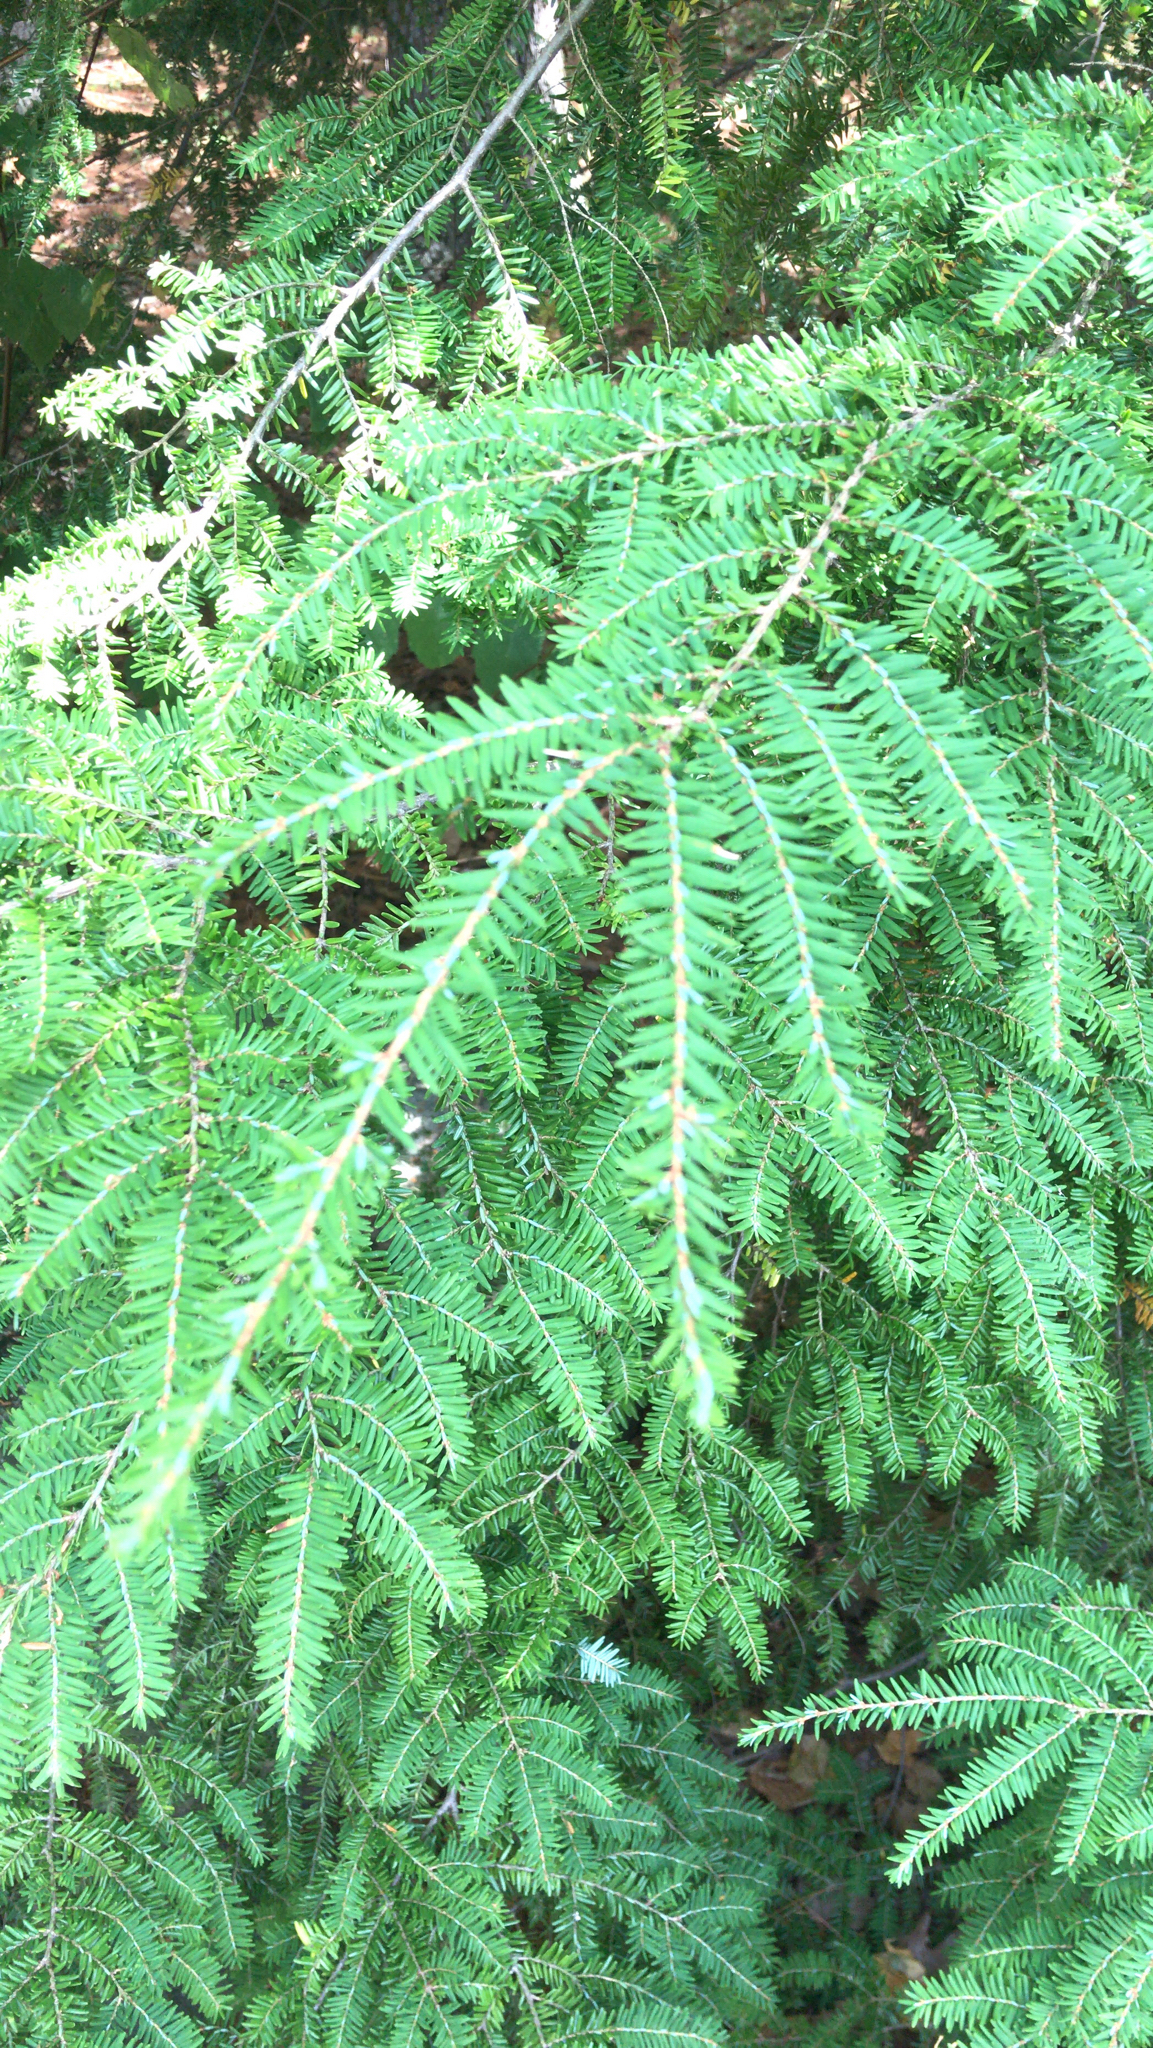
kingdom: Plantae
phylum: Tracheophyta
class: Pinopsida
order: Pinales
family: Pinaceae
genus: Tsuga
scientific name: Tsuga canadensis
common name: Eastern hemlock
